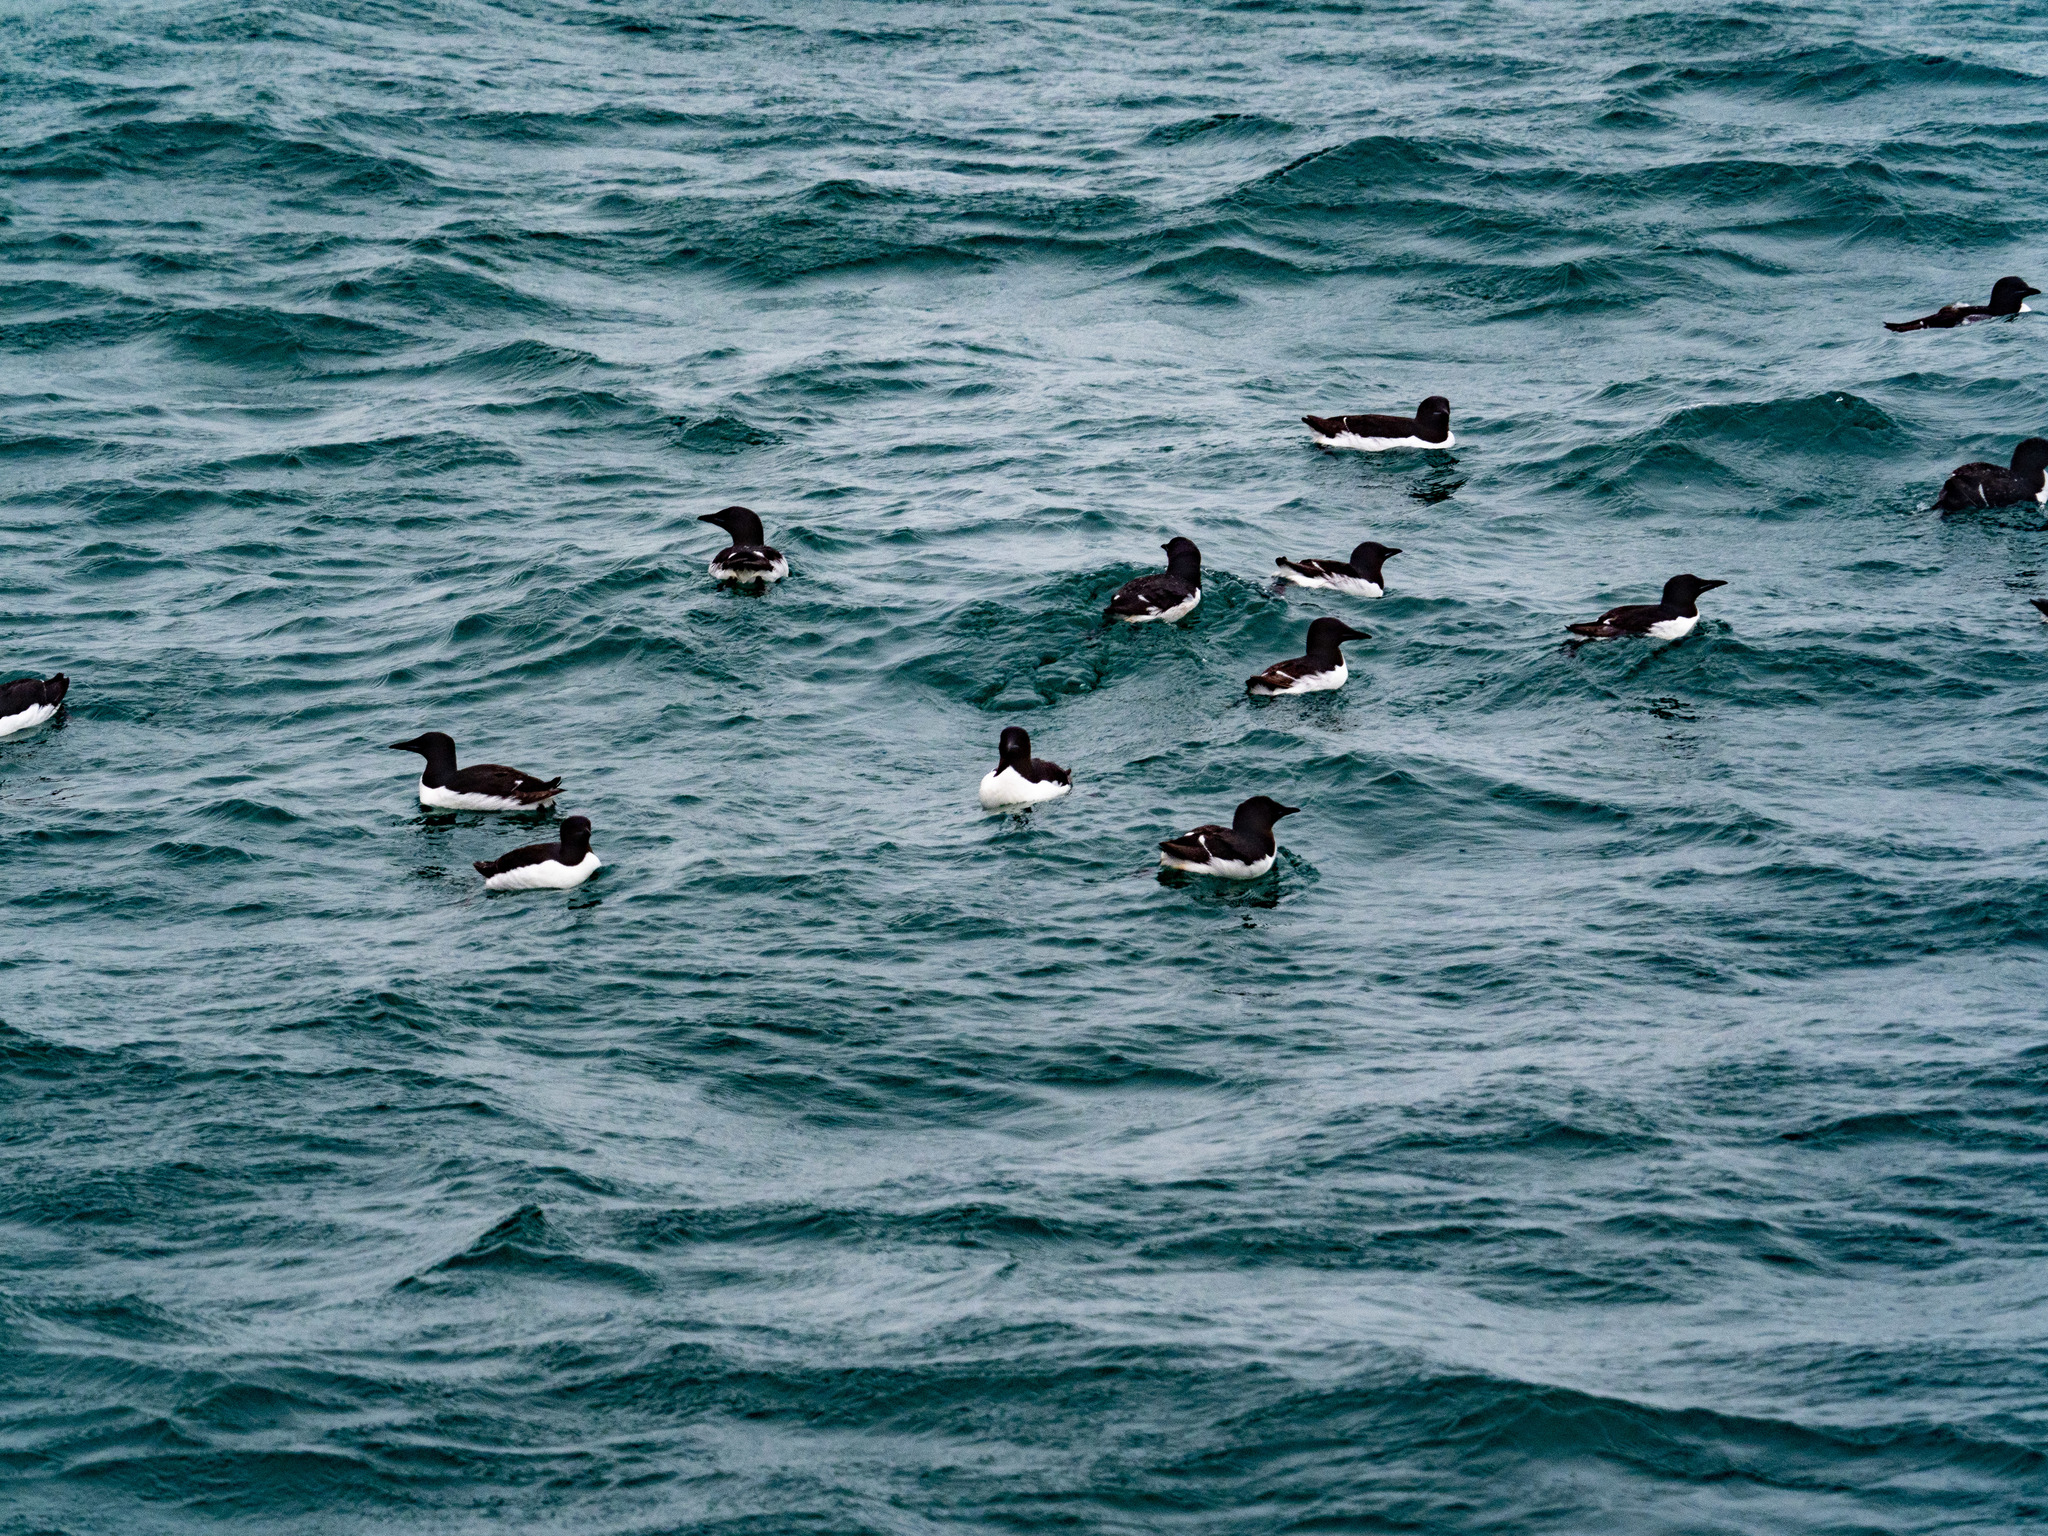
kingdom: Animalia
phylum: Chordata
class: Aves
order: Charadriiformes
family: Alcidae
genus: Uria
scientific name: Uria lomvia
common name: Thick-billed murre
